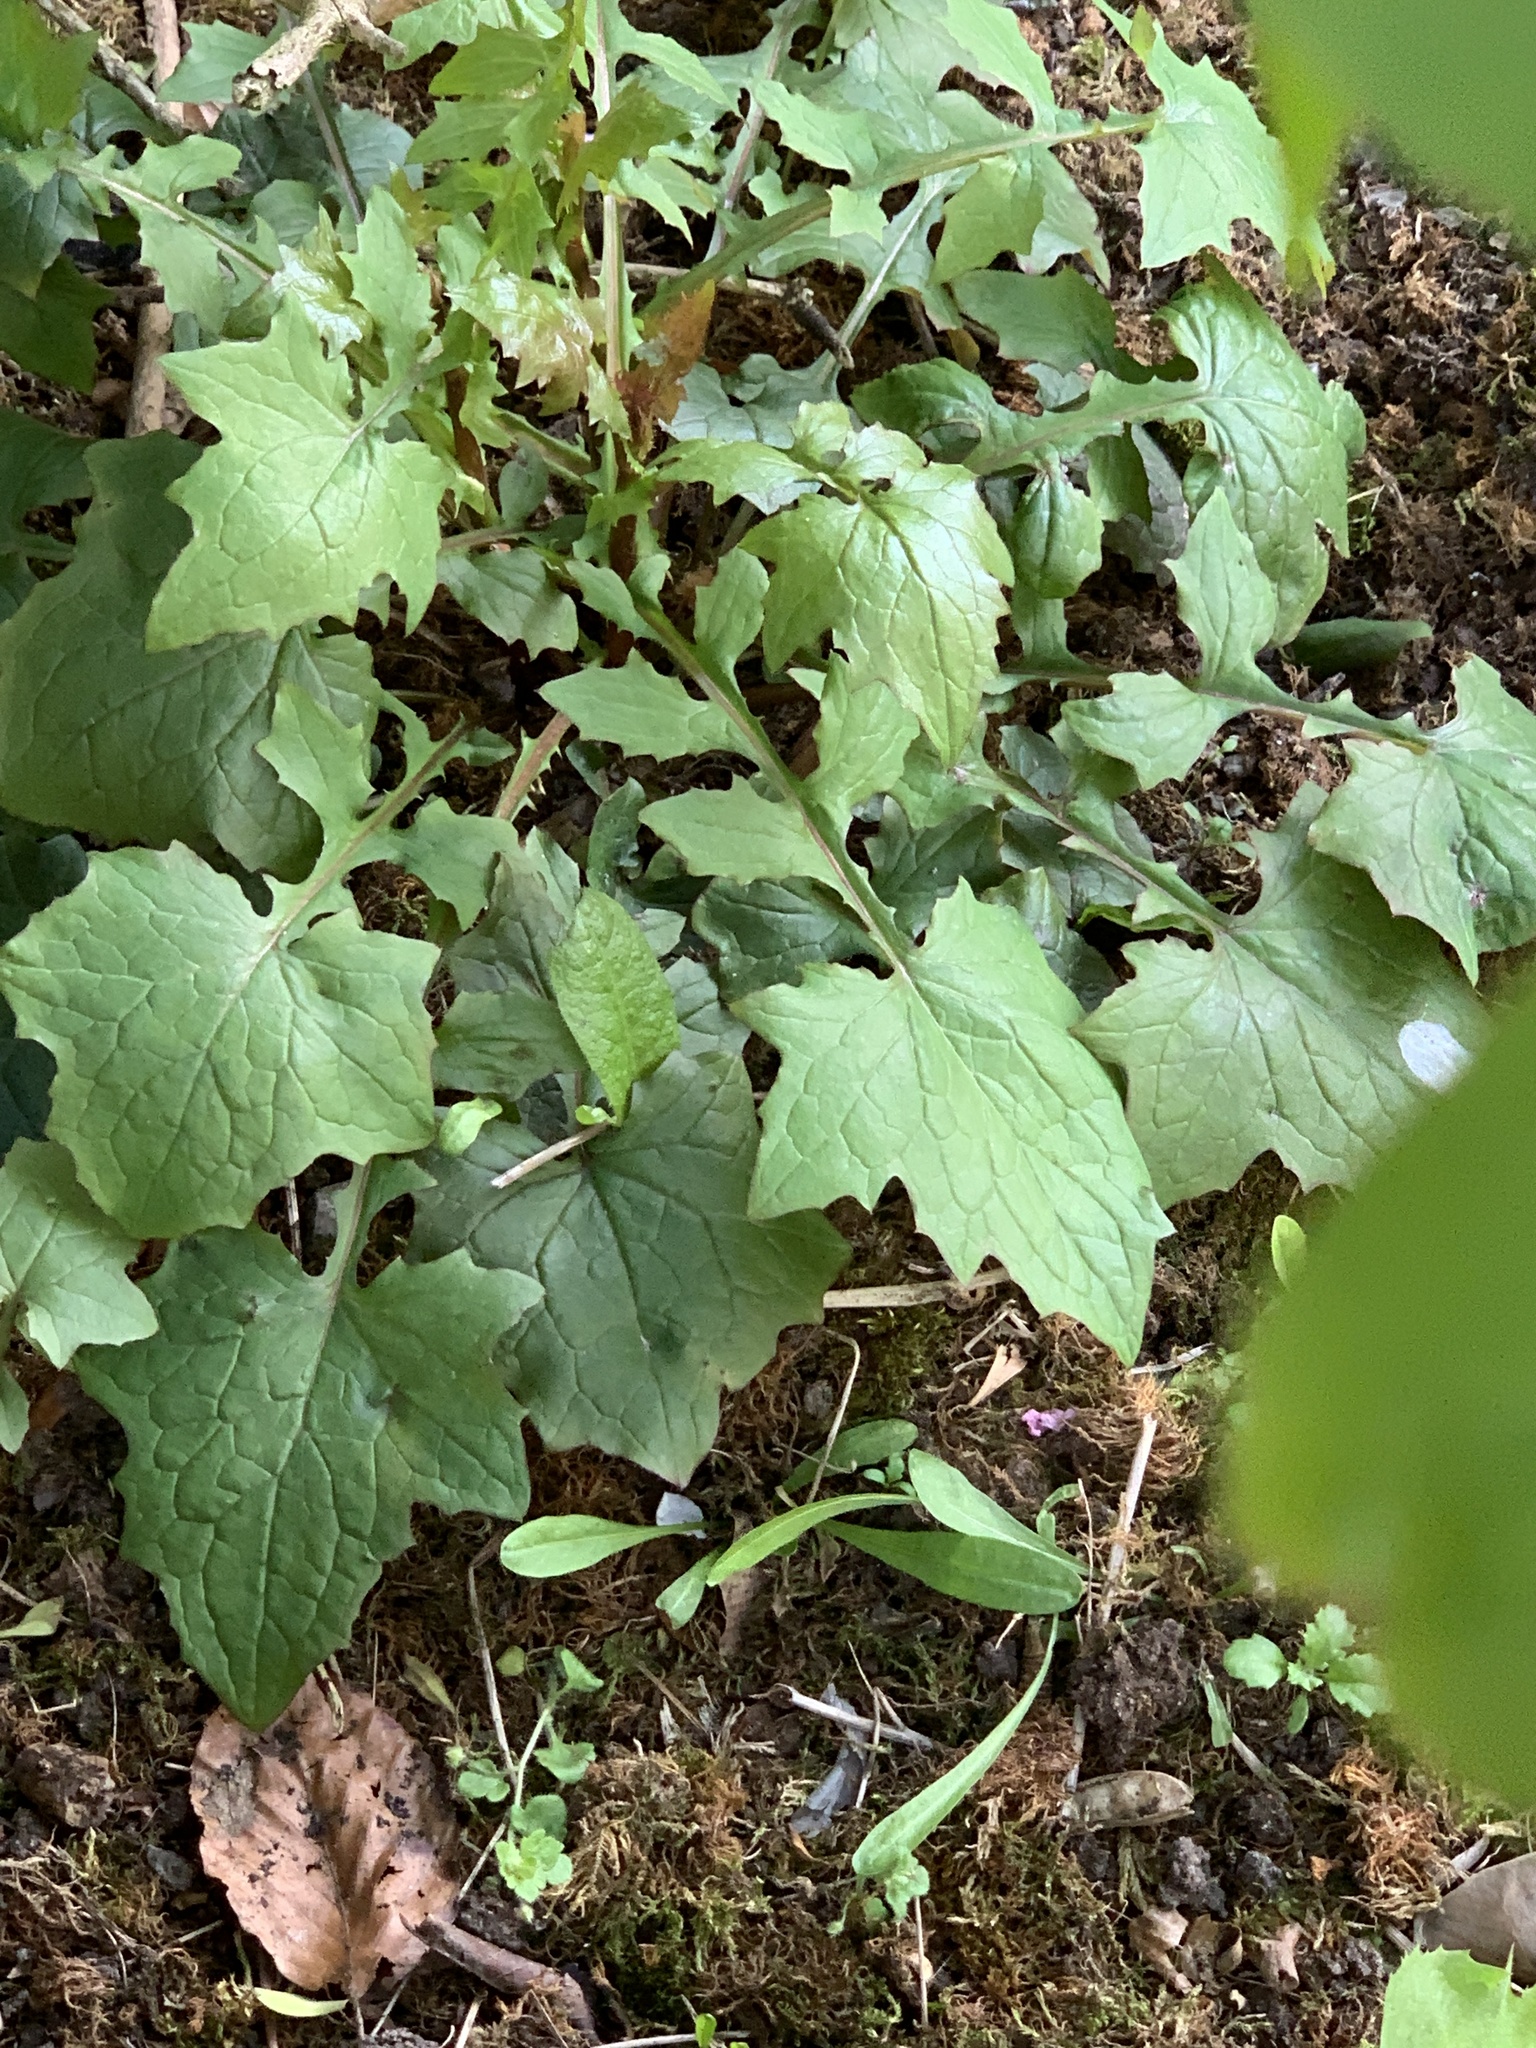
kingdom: Plantae
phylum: Tracheophyta
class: Magnoliopsida
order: Asterales
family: Asteraceae
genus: Mycelis
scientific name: Mycelis muralis
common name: Wall lettuce
